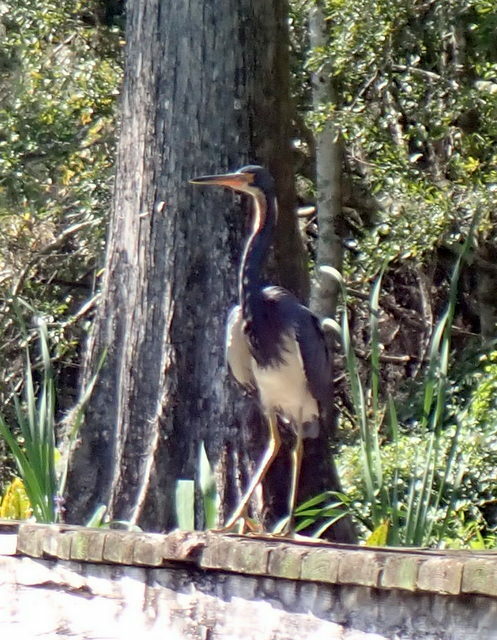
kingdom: Animalia
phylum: Chordata
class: Aves
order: Pelecaniformes
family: Ardeidae
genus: Egretta
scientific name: Egretta tricolor
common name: Tricolored heron
